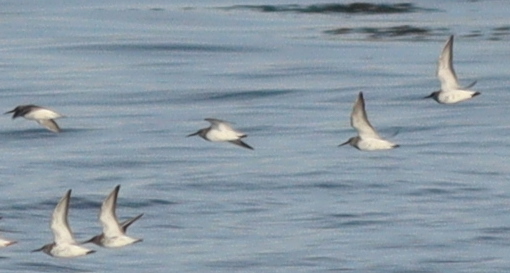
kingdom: Animalia
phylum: Chordata
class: Aves
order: Charadriiformes
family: Scolopacidae
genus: Calidris
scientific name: Calidris alpina
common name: Dunlin
